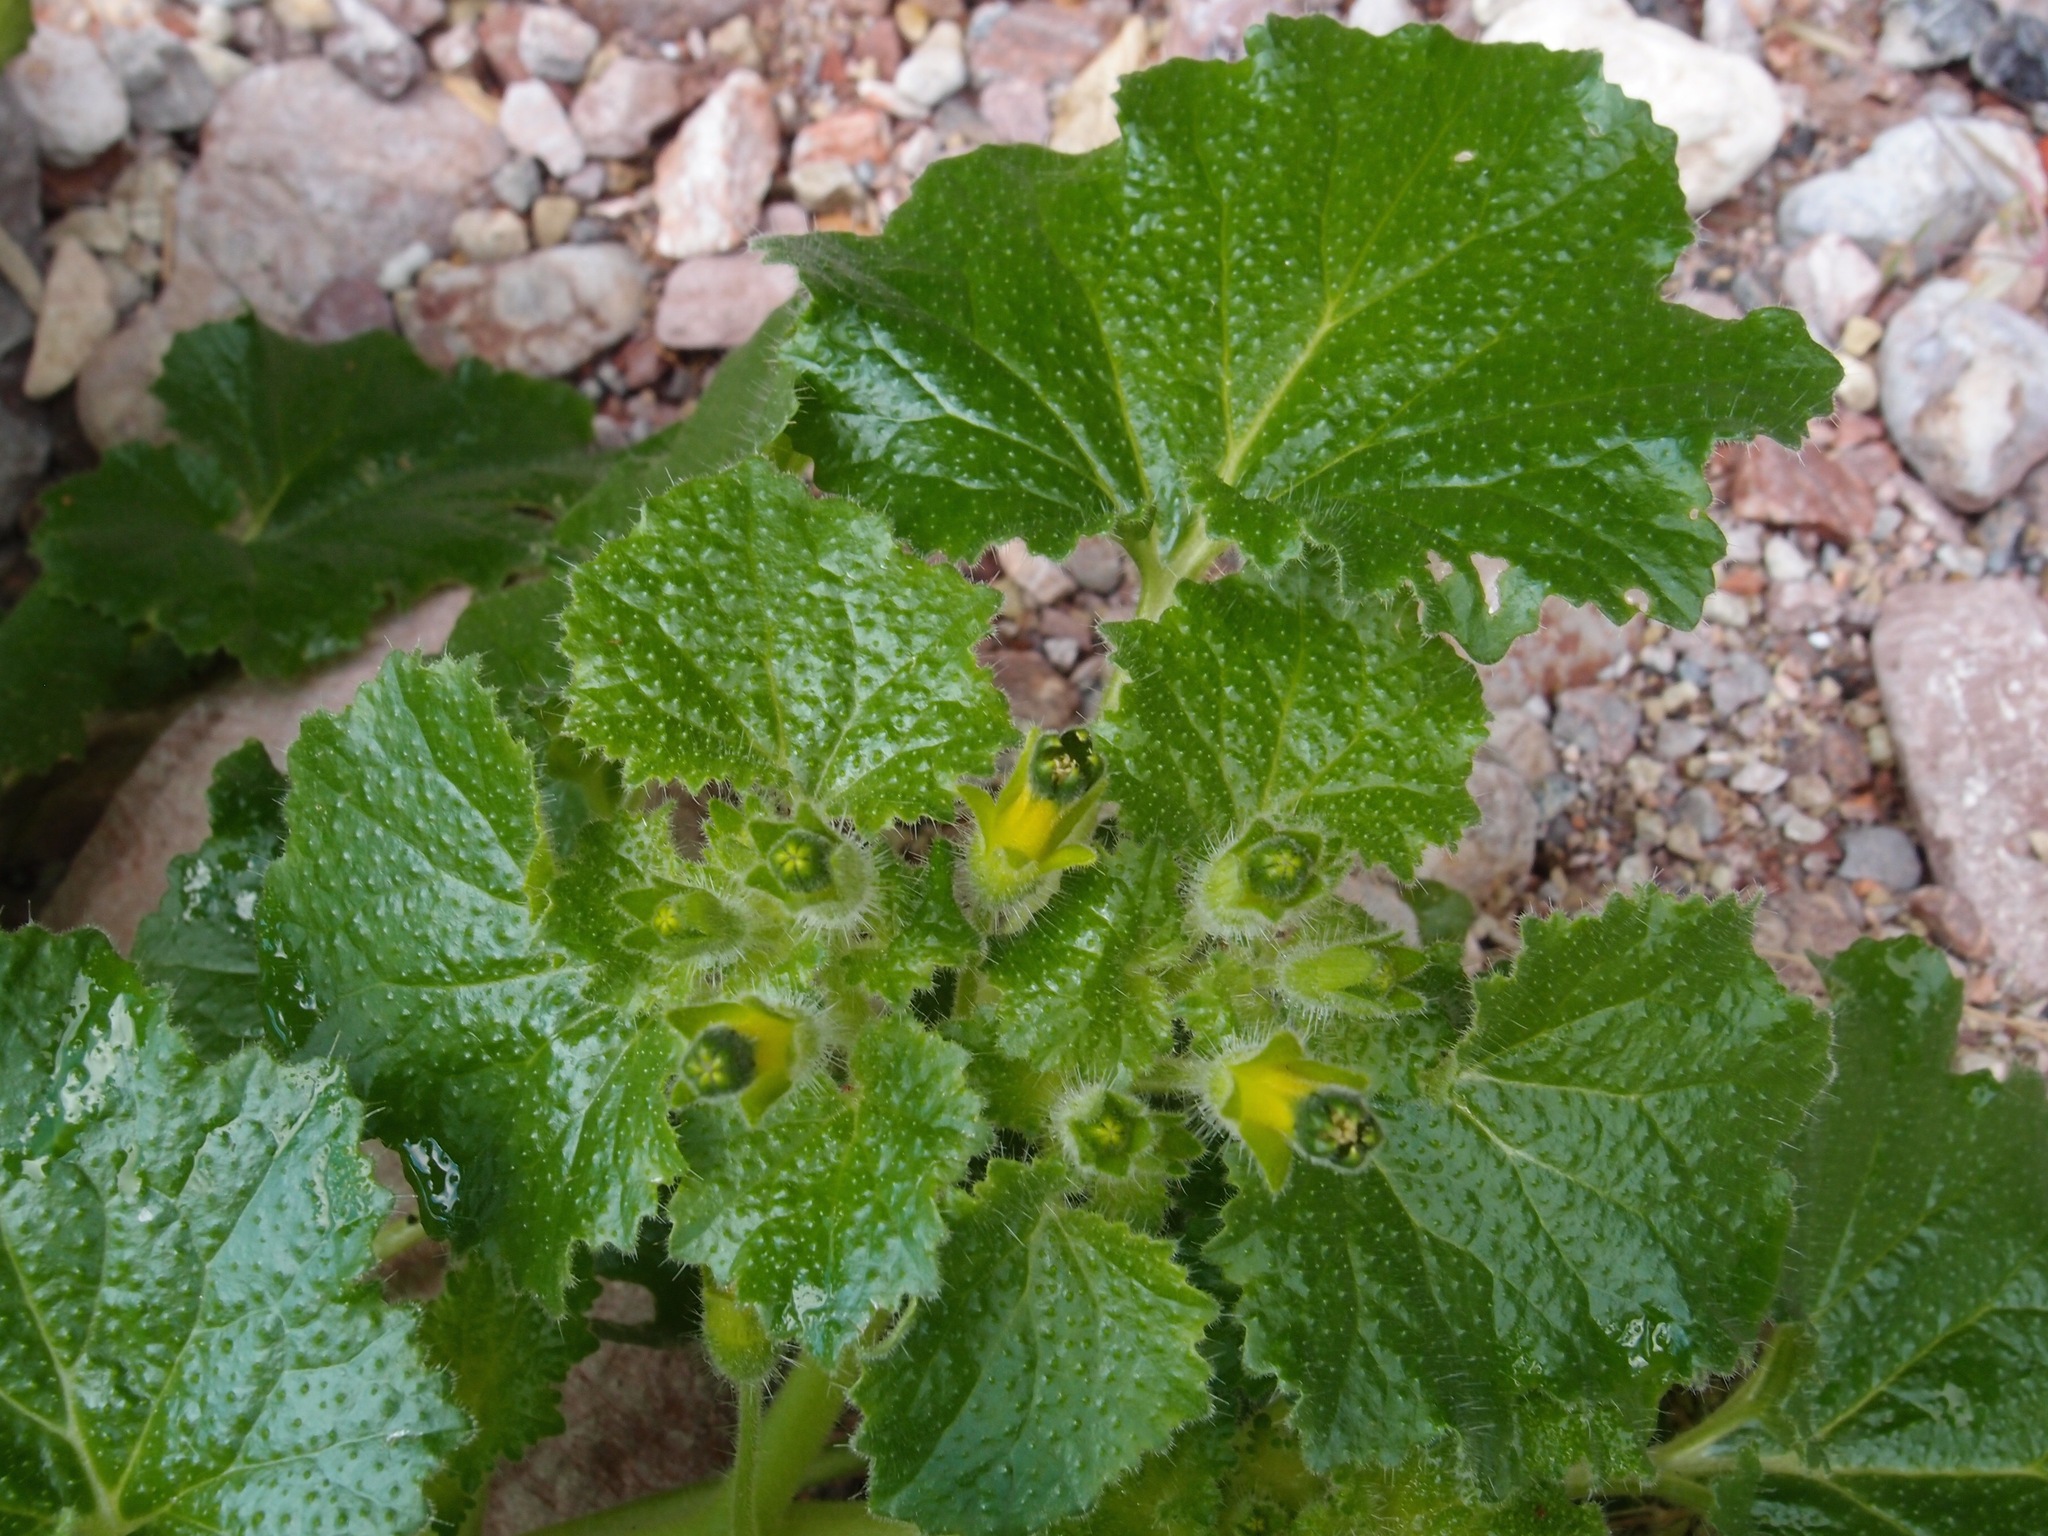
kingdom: Plantae
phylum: Tracheophyta
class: Magnoliopsida
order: Cornales
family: Loasaceae
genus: Eucnide
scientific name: Eucnide rupestris
